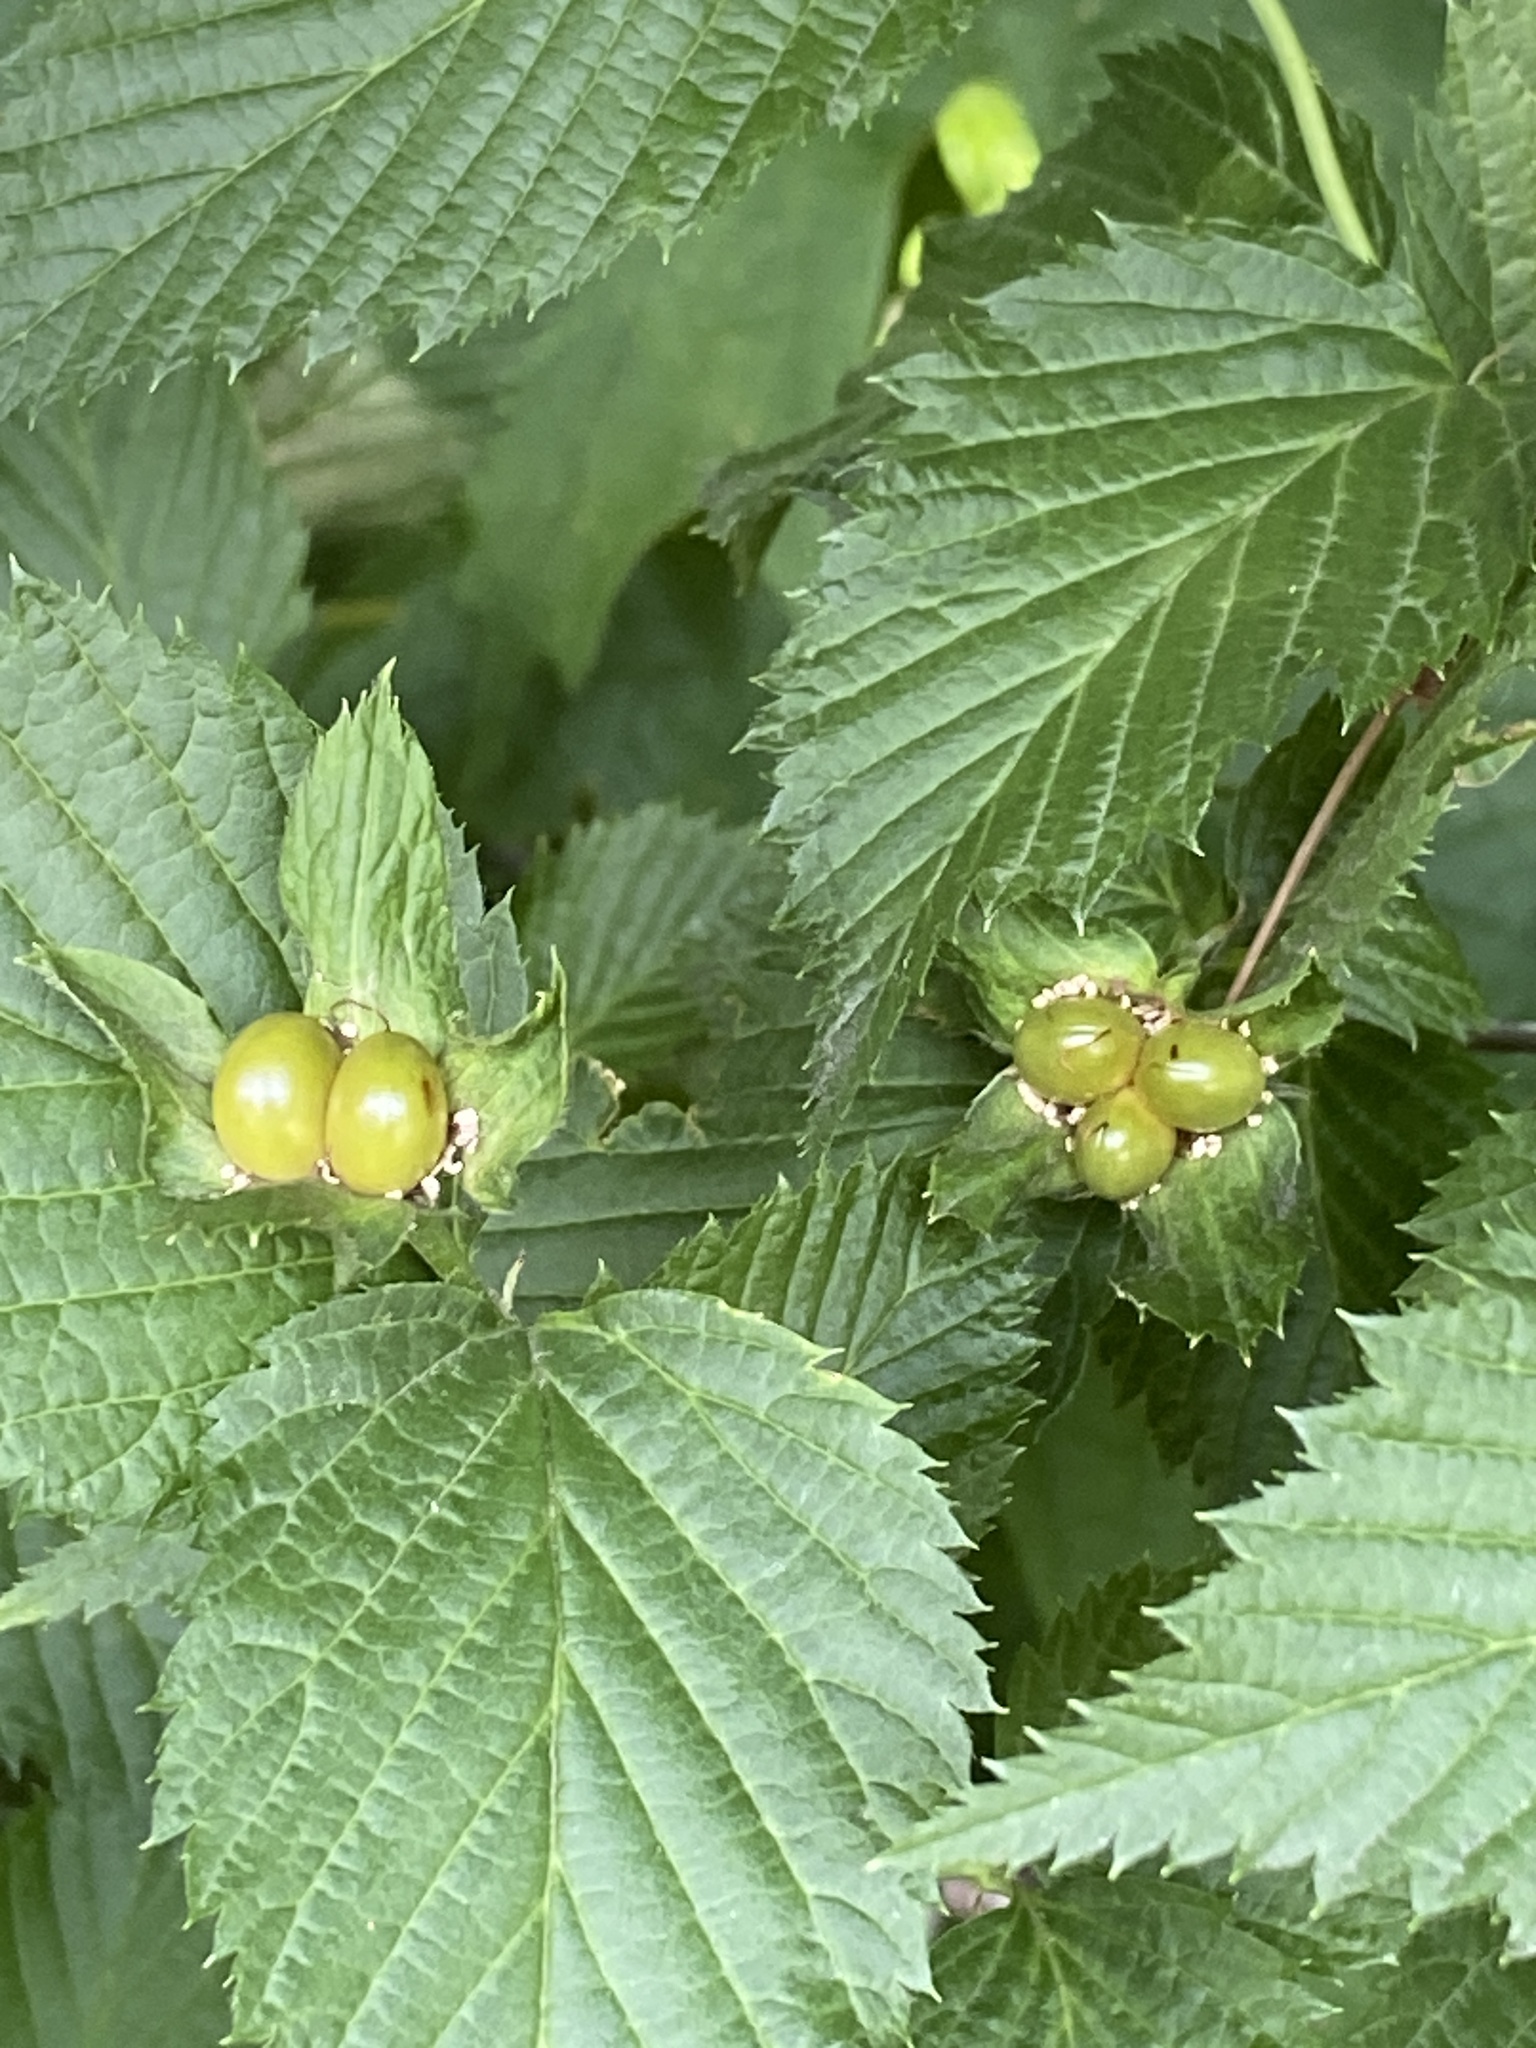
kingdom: Plantae
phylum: Tracheophyta
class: Magnoliopsida
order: Rosales
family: Rosaceae
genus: Rhodotypos
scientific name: Rhodotypos scandens
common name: Jetbead
